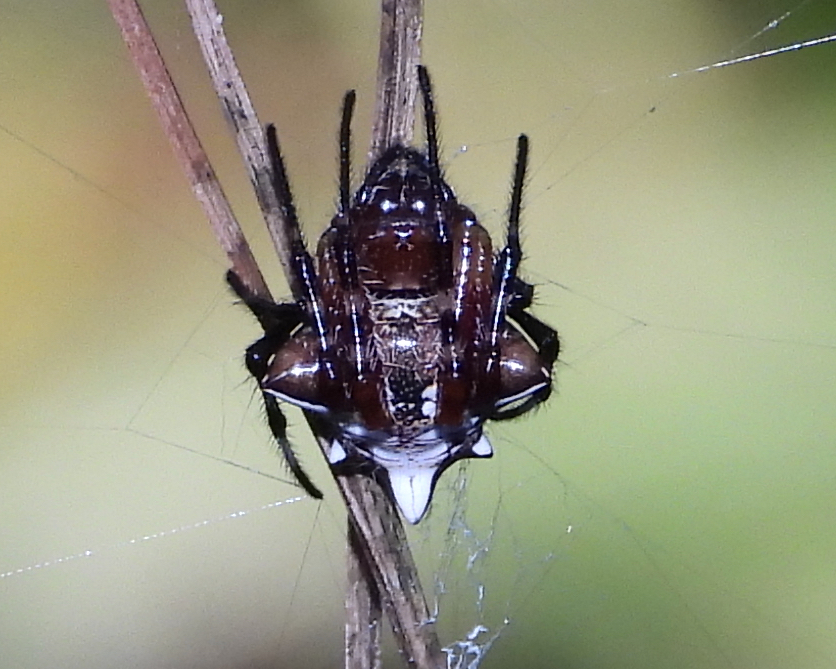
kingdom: Animalia
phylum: Arthropoda
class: Arachnida
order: Araneae
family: Araneidae
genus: Verrucosa
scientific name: Verrucosa arenata
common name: Orb weavers
